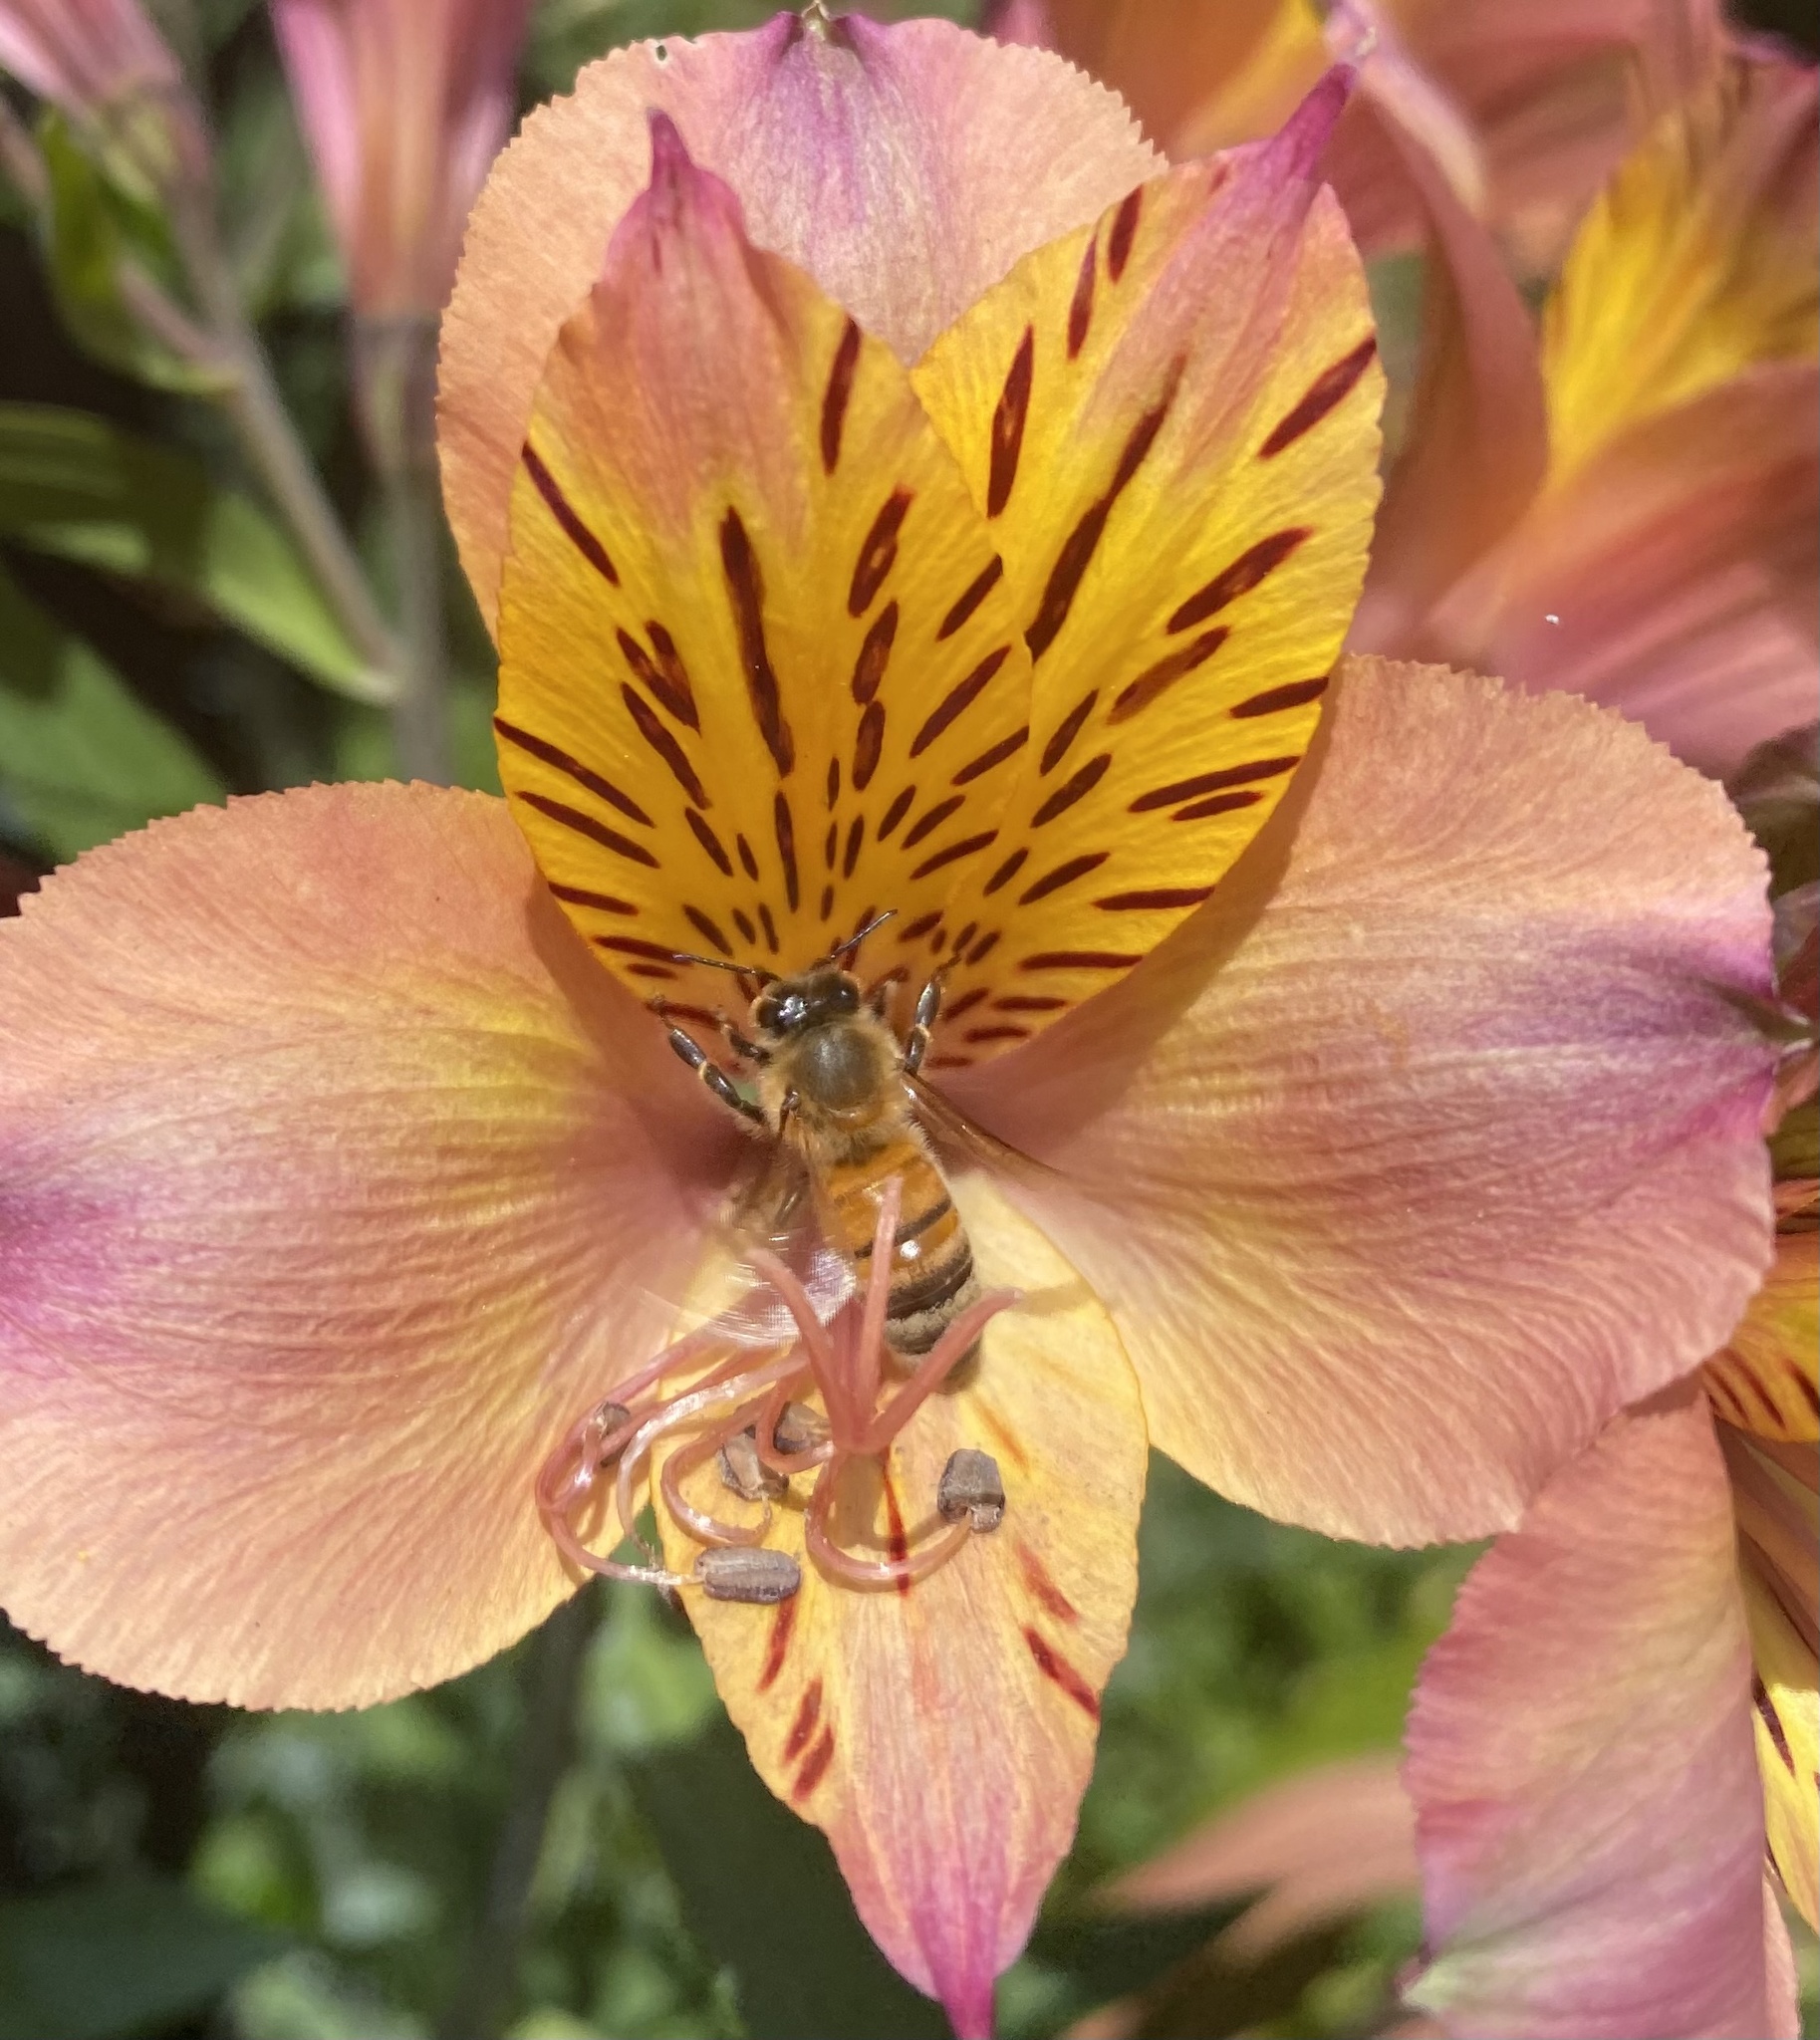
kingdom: Animalia
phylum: Arthropoda
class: Insecta
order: Hymenoptera
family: Apidae
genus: Apis
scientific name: Apis mellifera
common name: Honey bee
